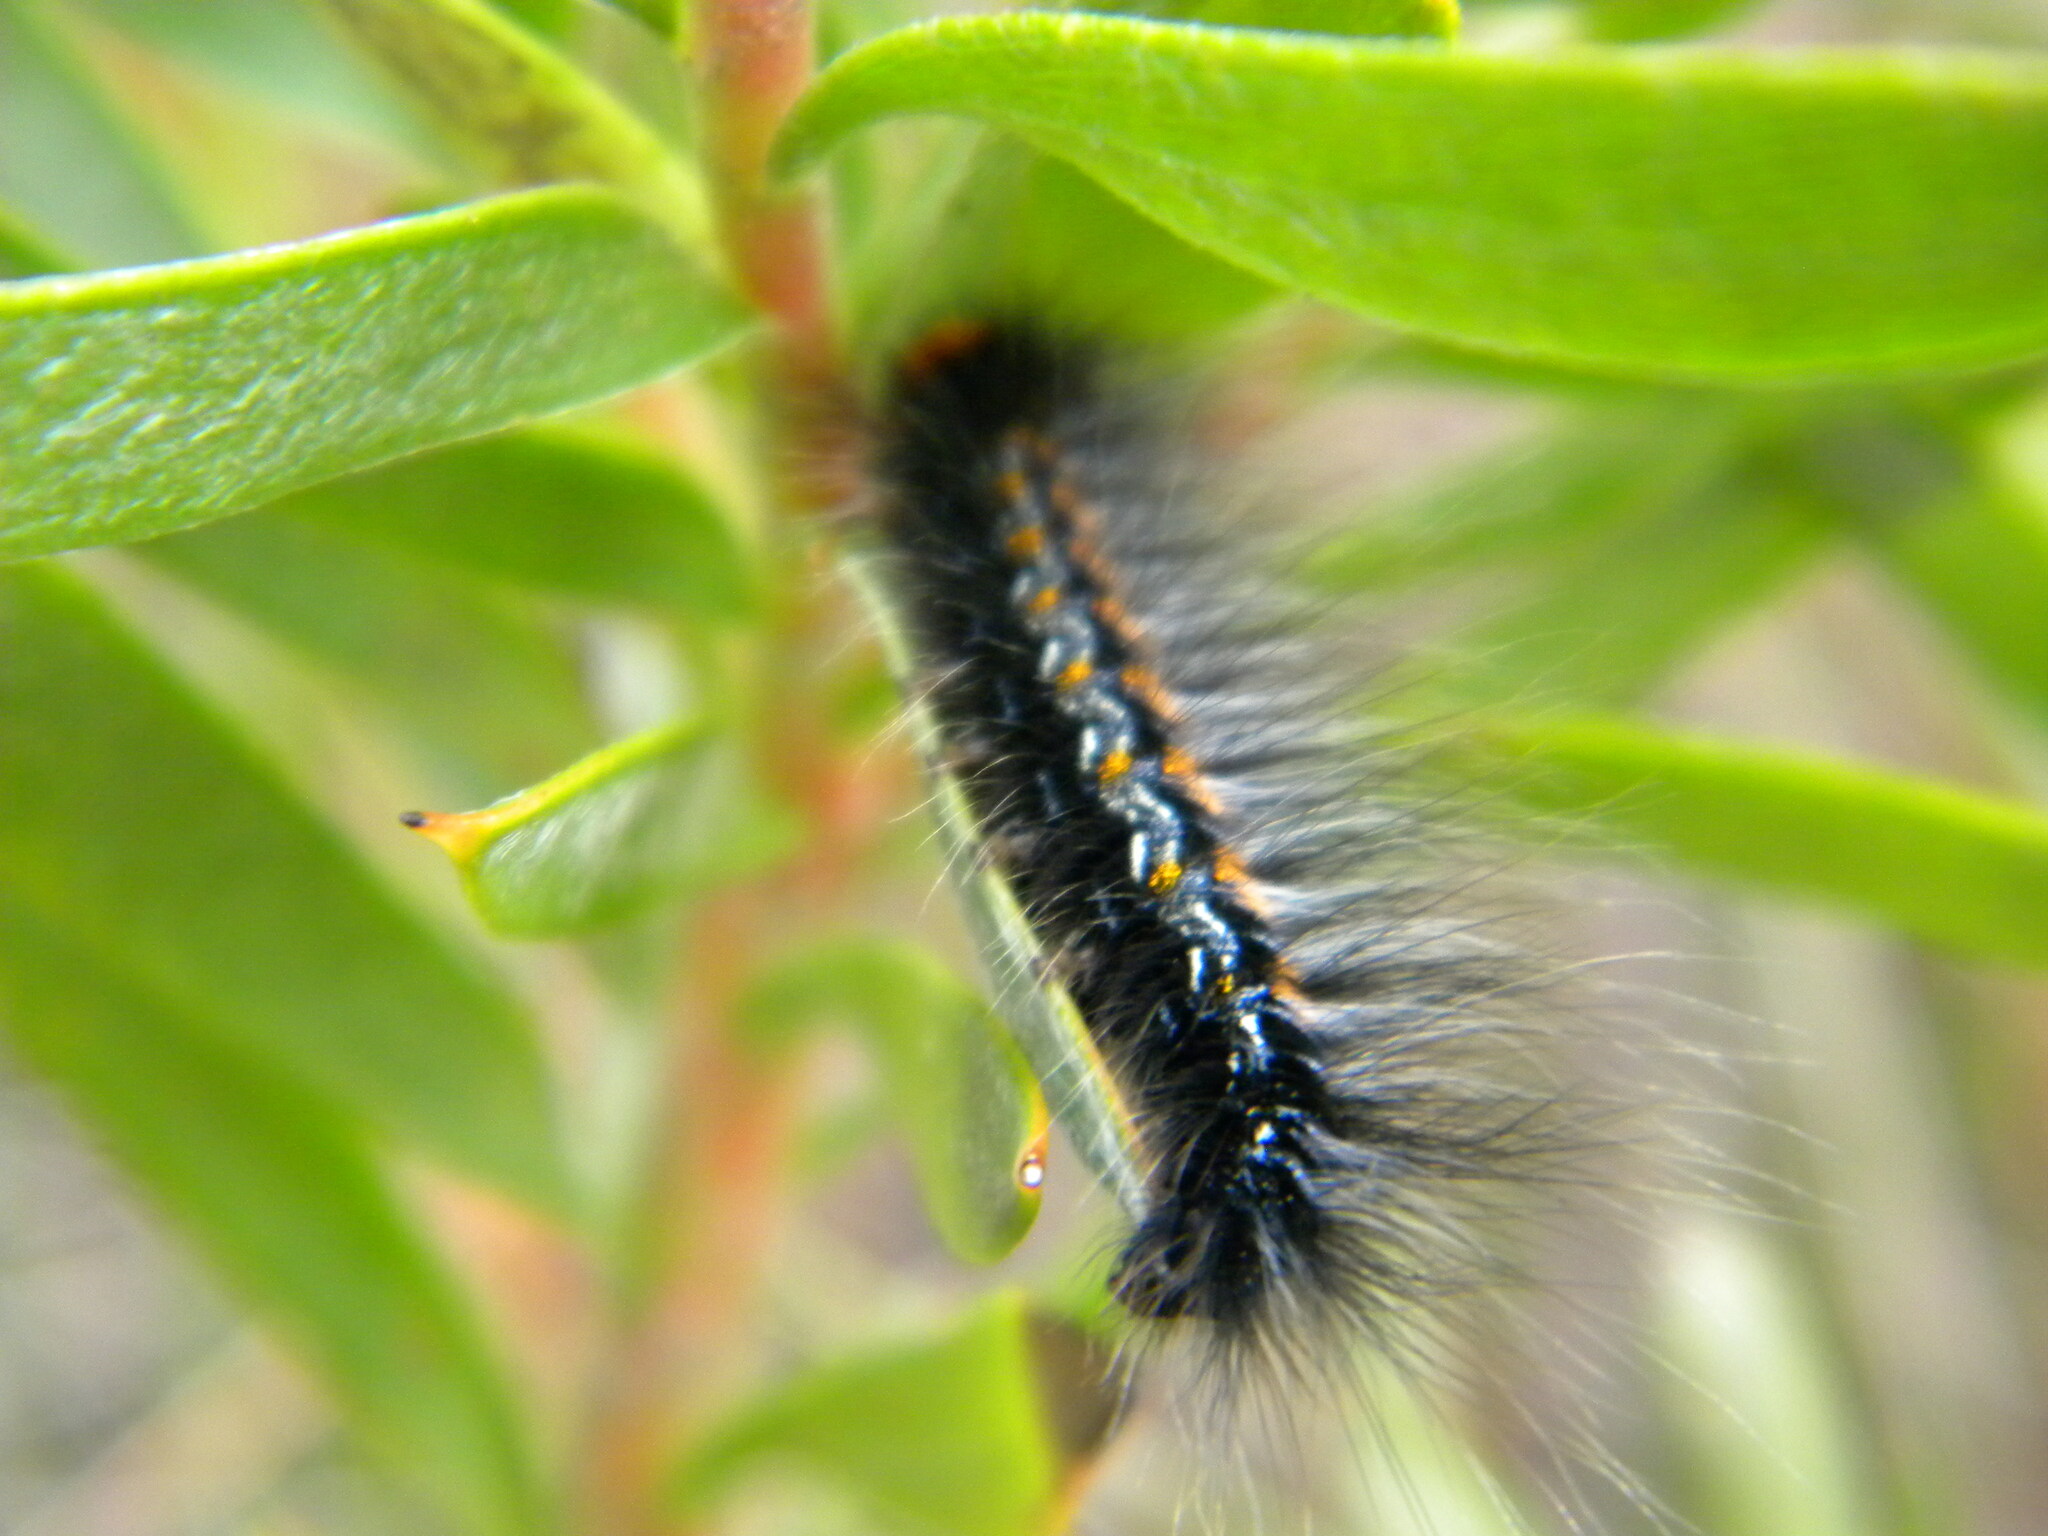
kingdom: Animalia
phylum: Arthropoda
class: Insecta
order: Lepidoptera
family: Lasiocampidae
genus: Mesocelis
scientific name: Mesocelis monticola
